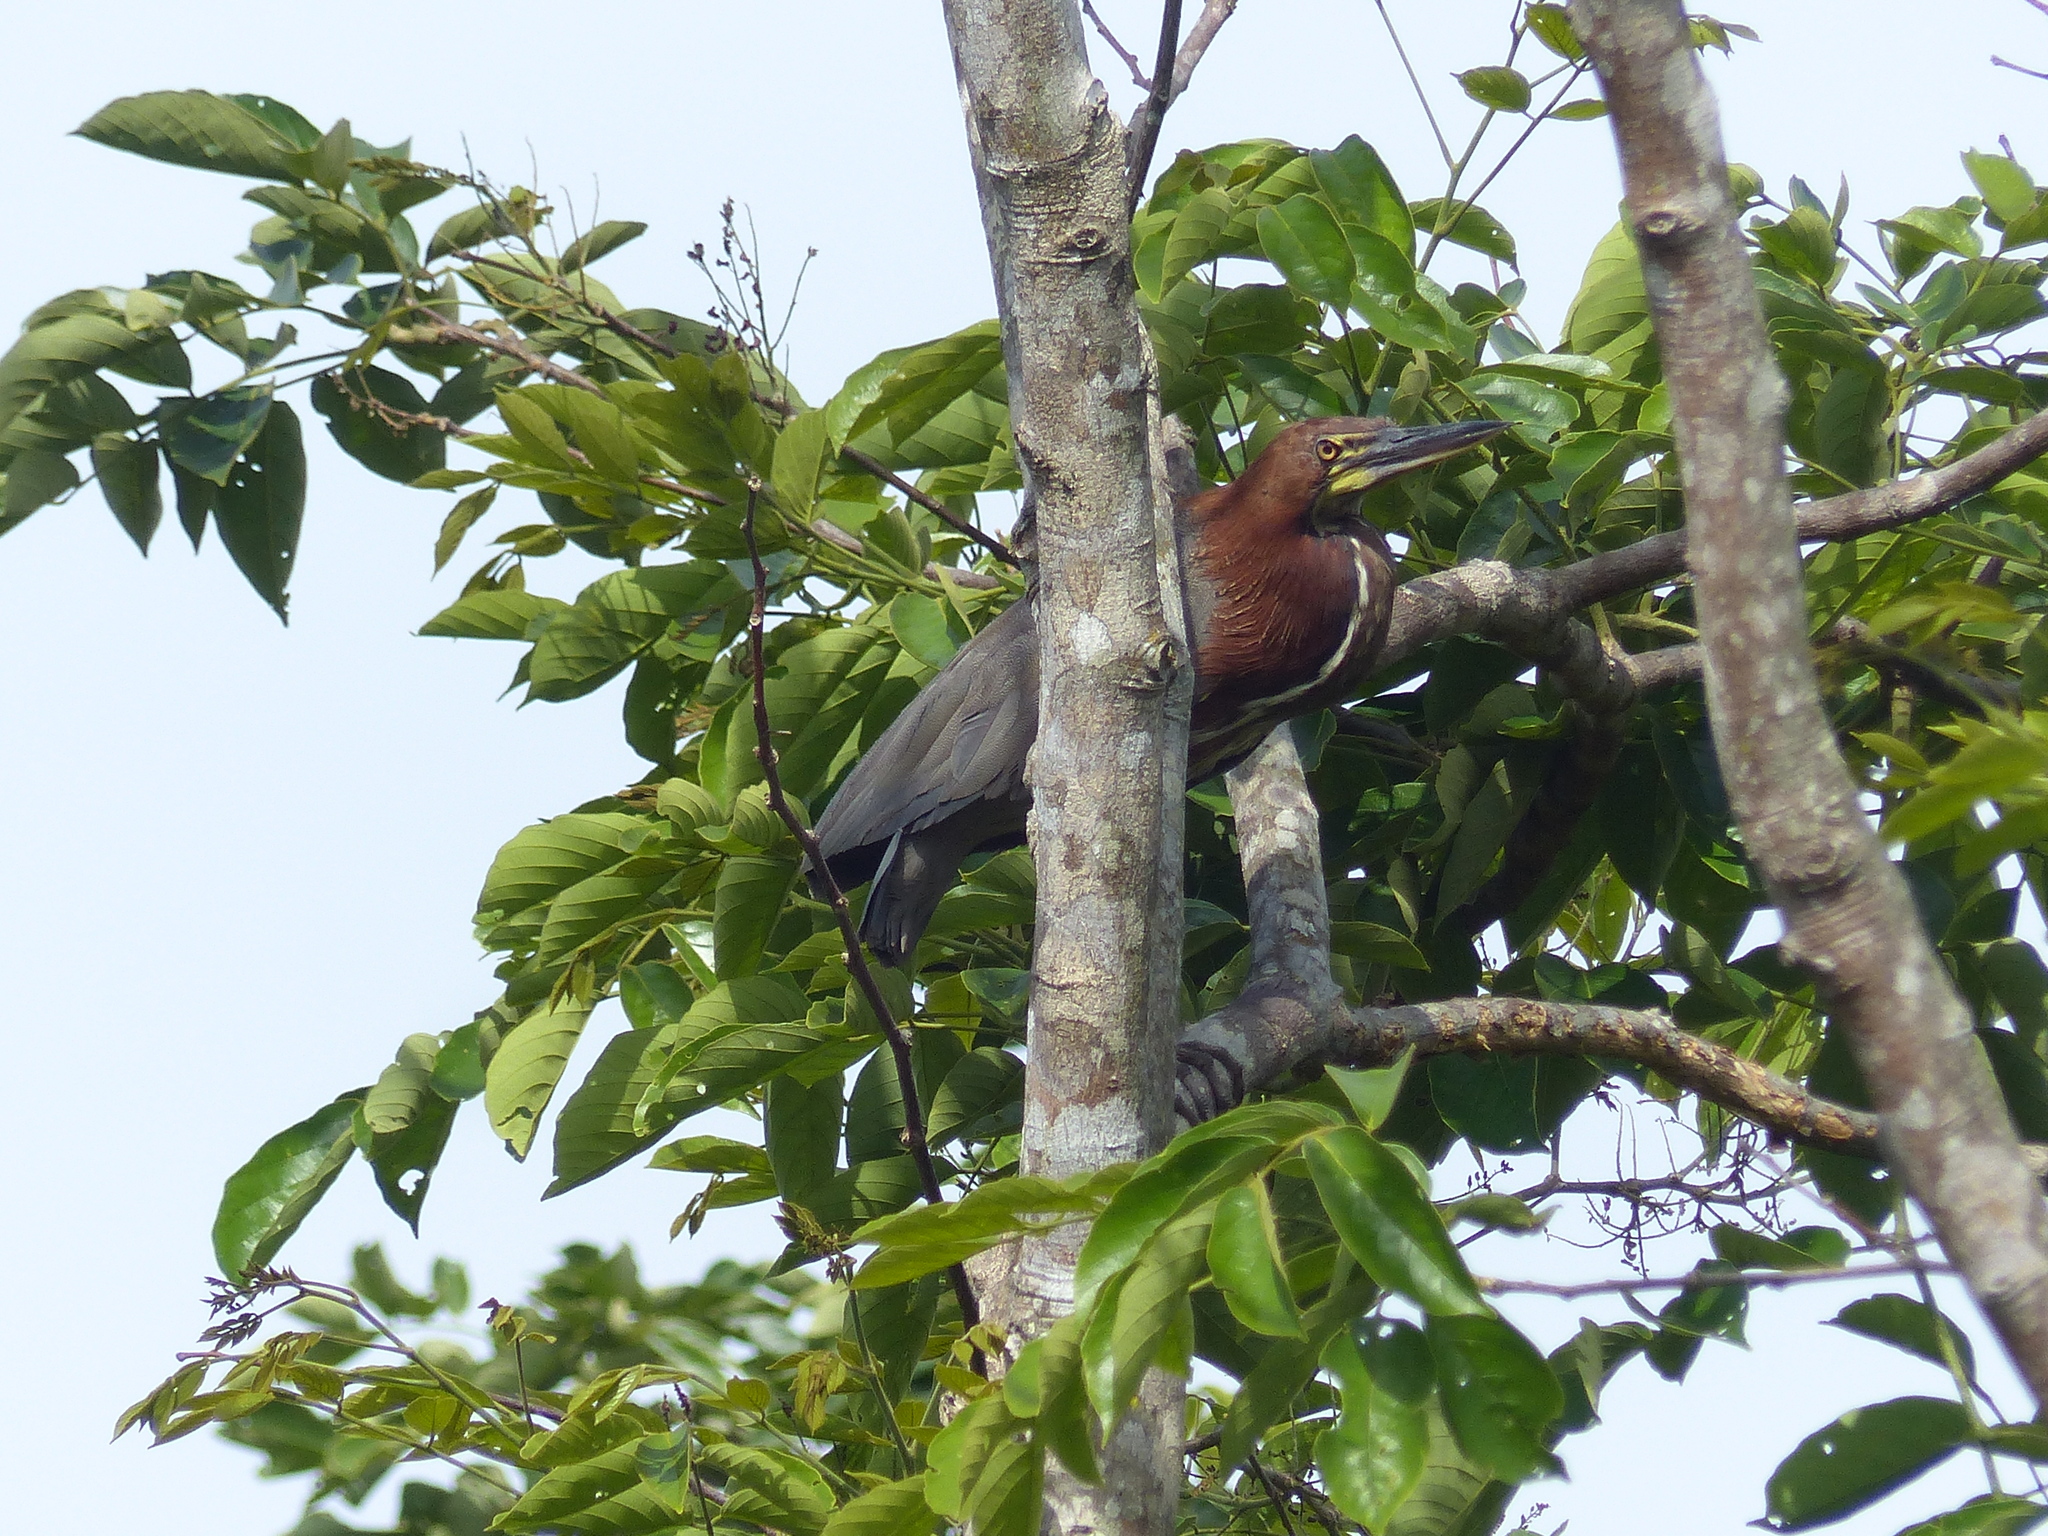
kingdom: Animalia
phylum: Chordata
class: Aves
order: Pelecaniformes
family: Ardeidae
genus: Tigrisoma
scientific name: Tigrisoma lineatum
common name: Rufescent tiger-heron
